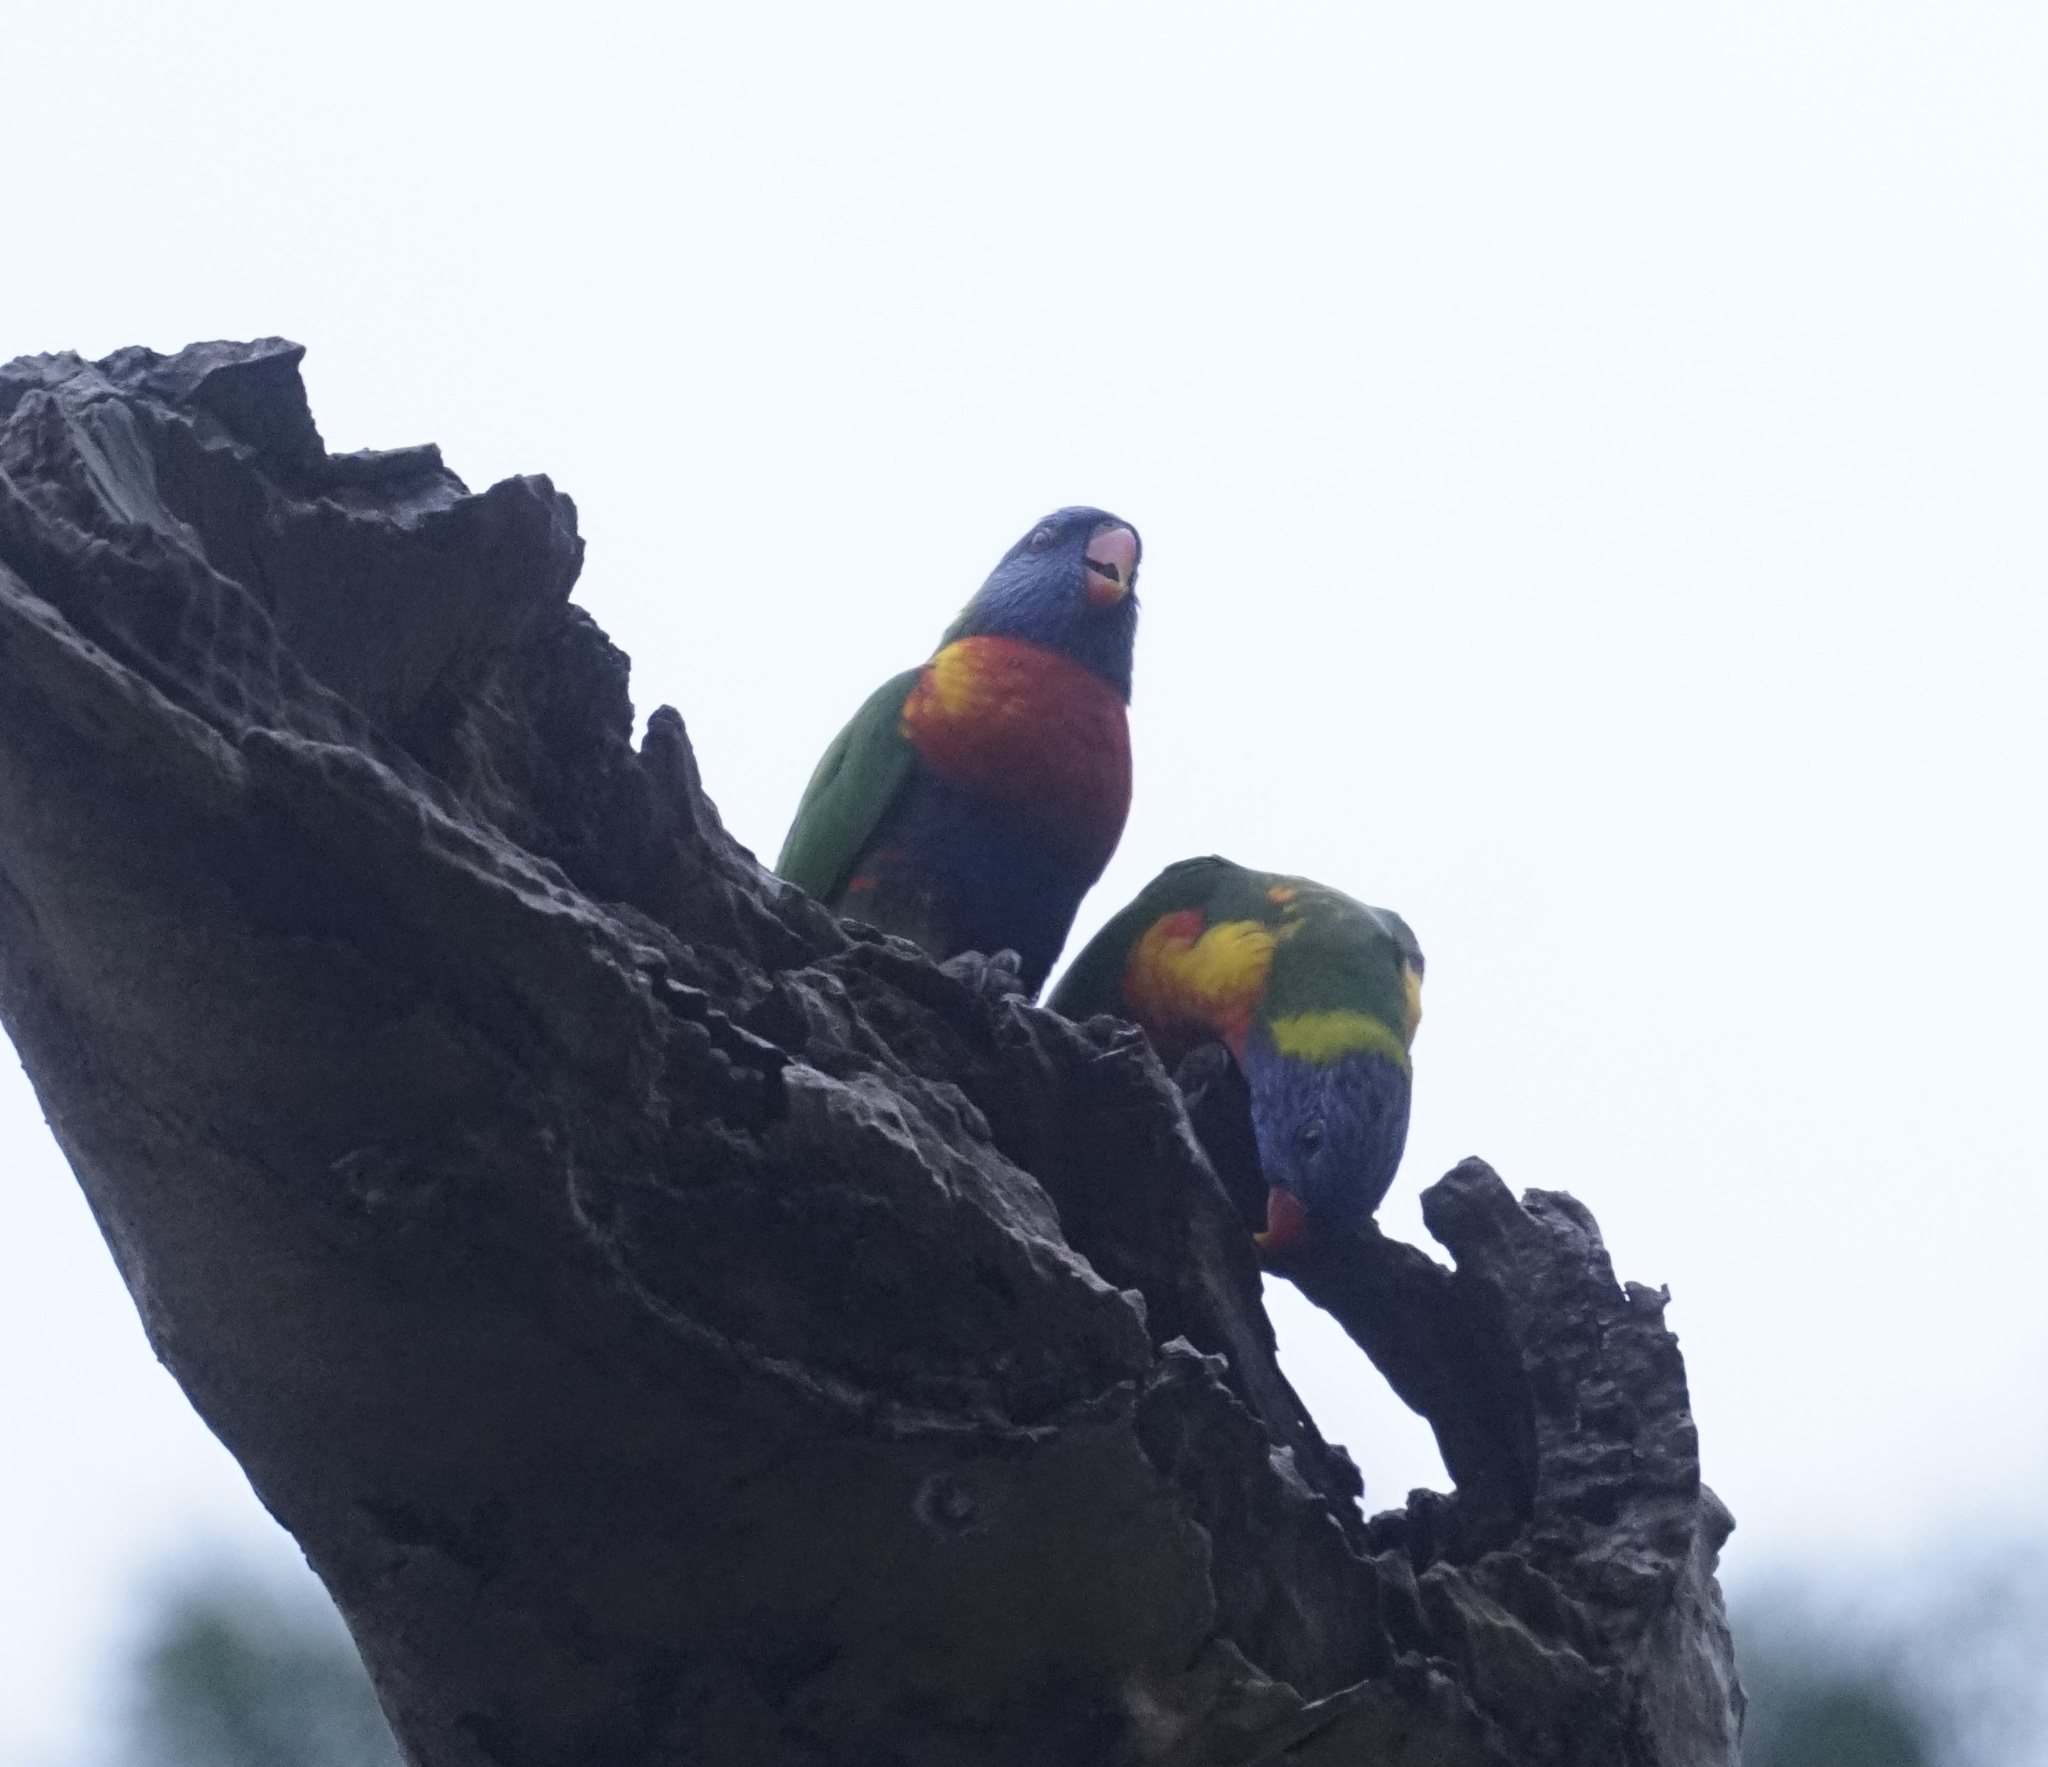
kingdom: Animalia
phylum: Chordata
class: Aves
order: Psittaciformes
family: Psittacidae
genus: Trichoglossus
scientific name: Trichoglossus haematodus
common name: Coconut lorikeet
